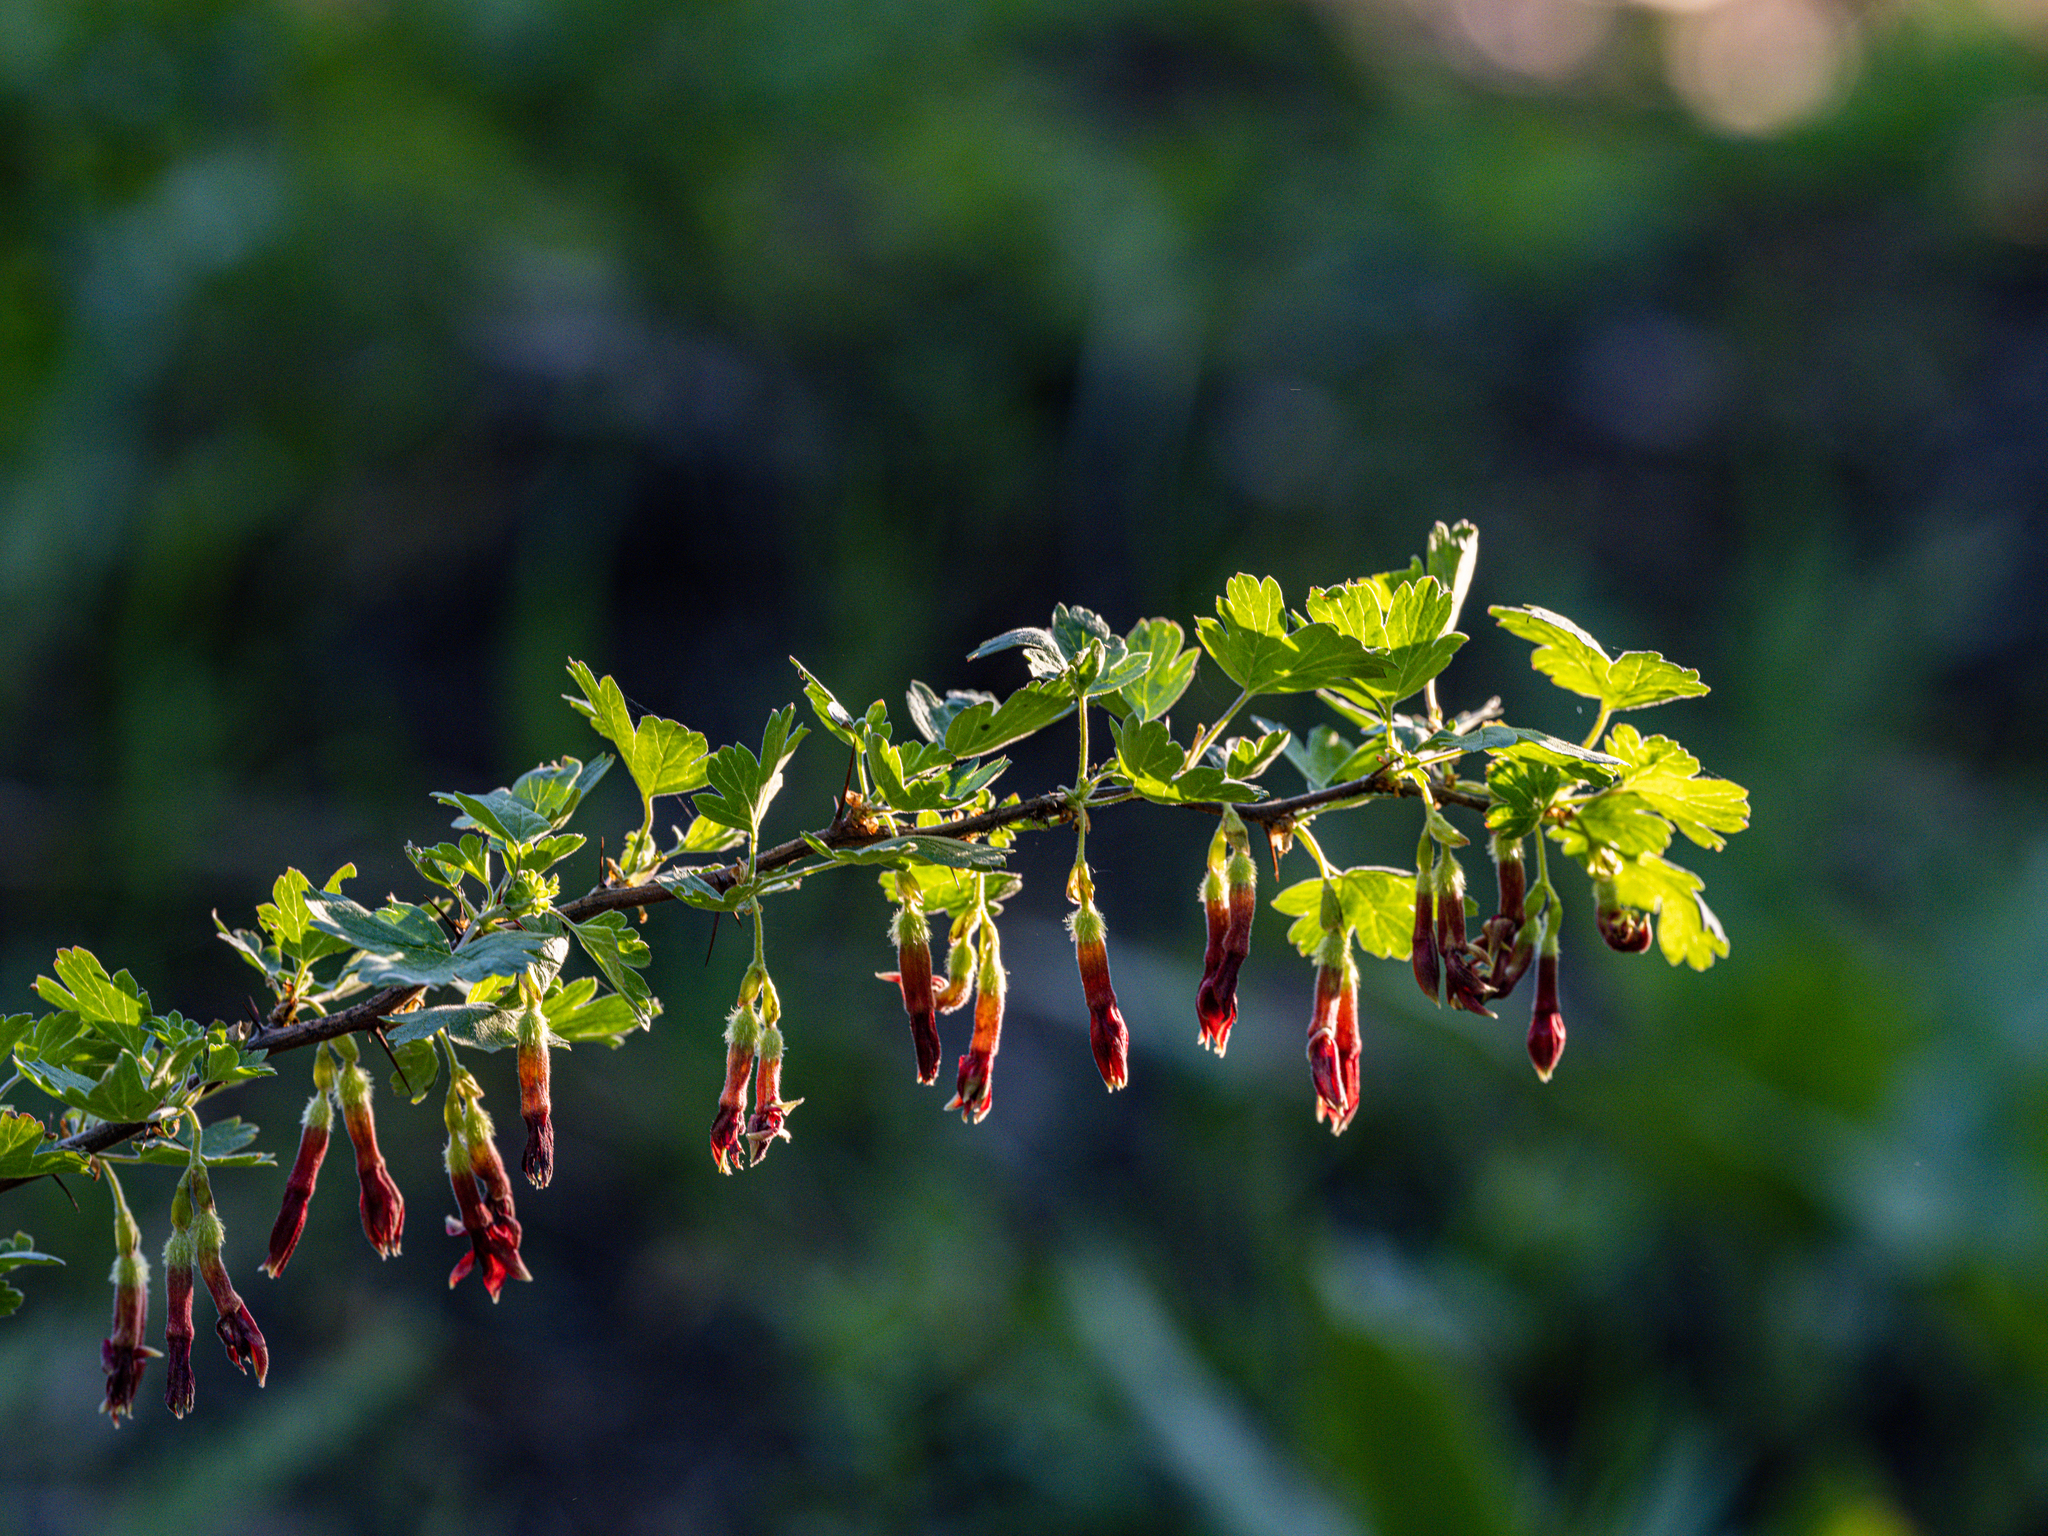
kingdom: Plantae
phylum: Tracheophyta
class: Magnoliopsida
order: Saxifragales
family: Grossulariaceae
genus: Ribes
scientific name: Ribes roezlii
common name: Sierra gooseberry
